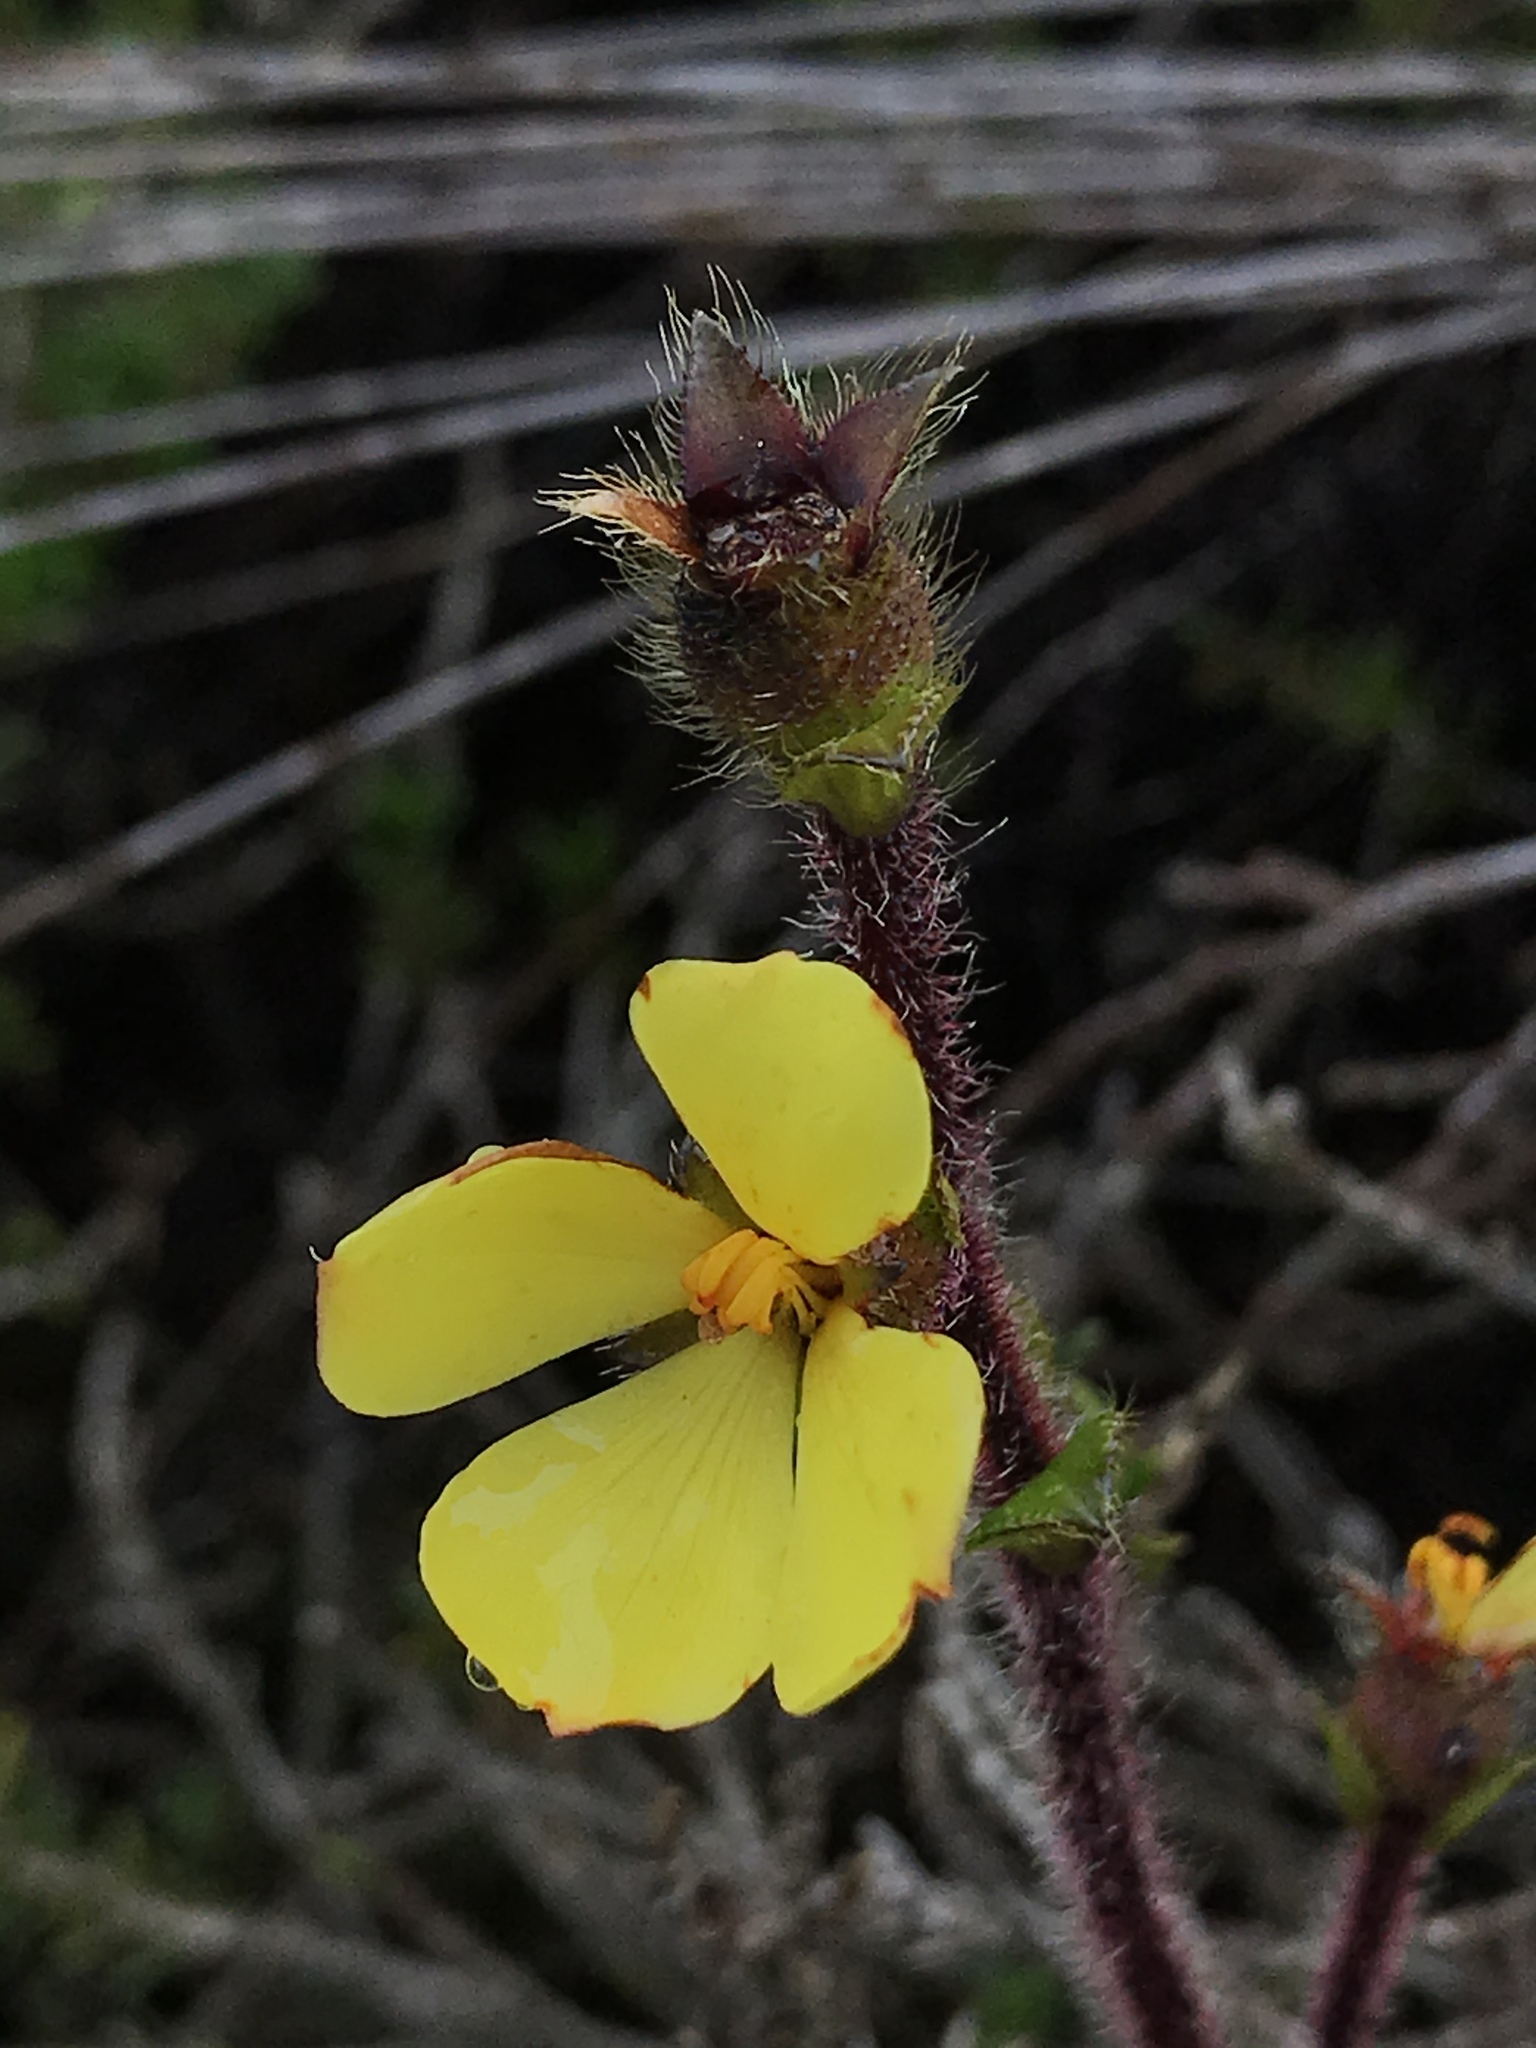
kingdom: Plantae
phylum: Tracheophyta
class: Magnoliopsida
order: Myrtales
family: Melastomataceae
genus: Castratella
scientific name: Castratella piloselloides
